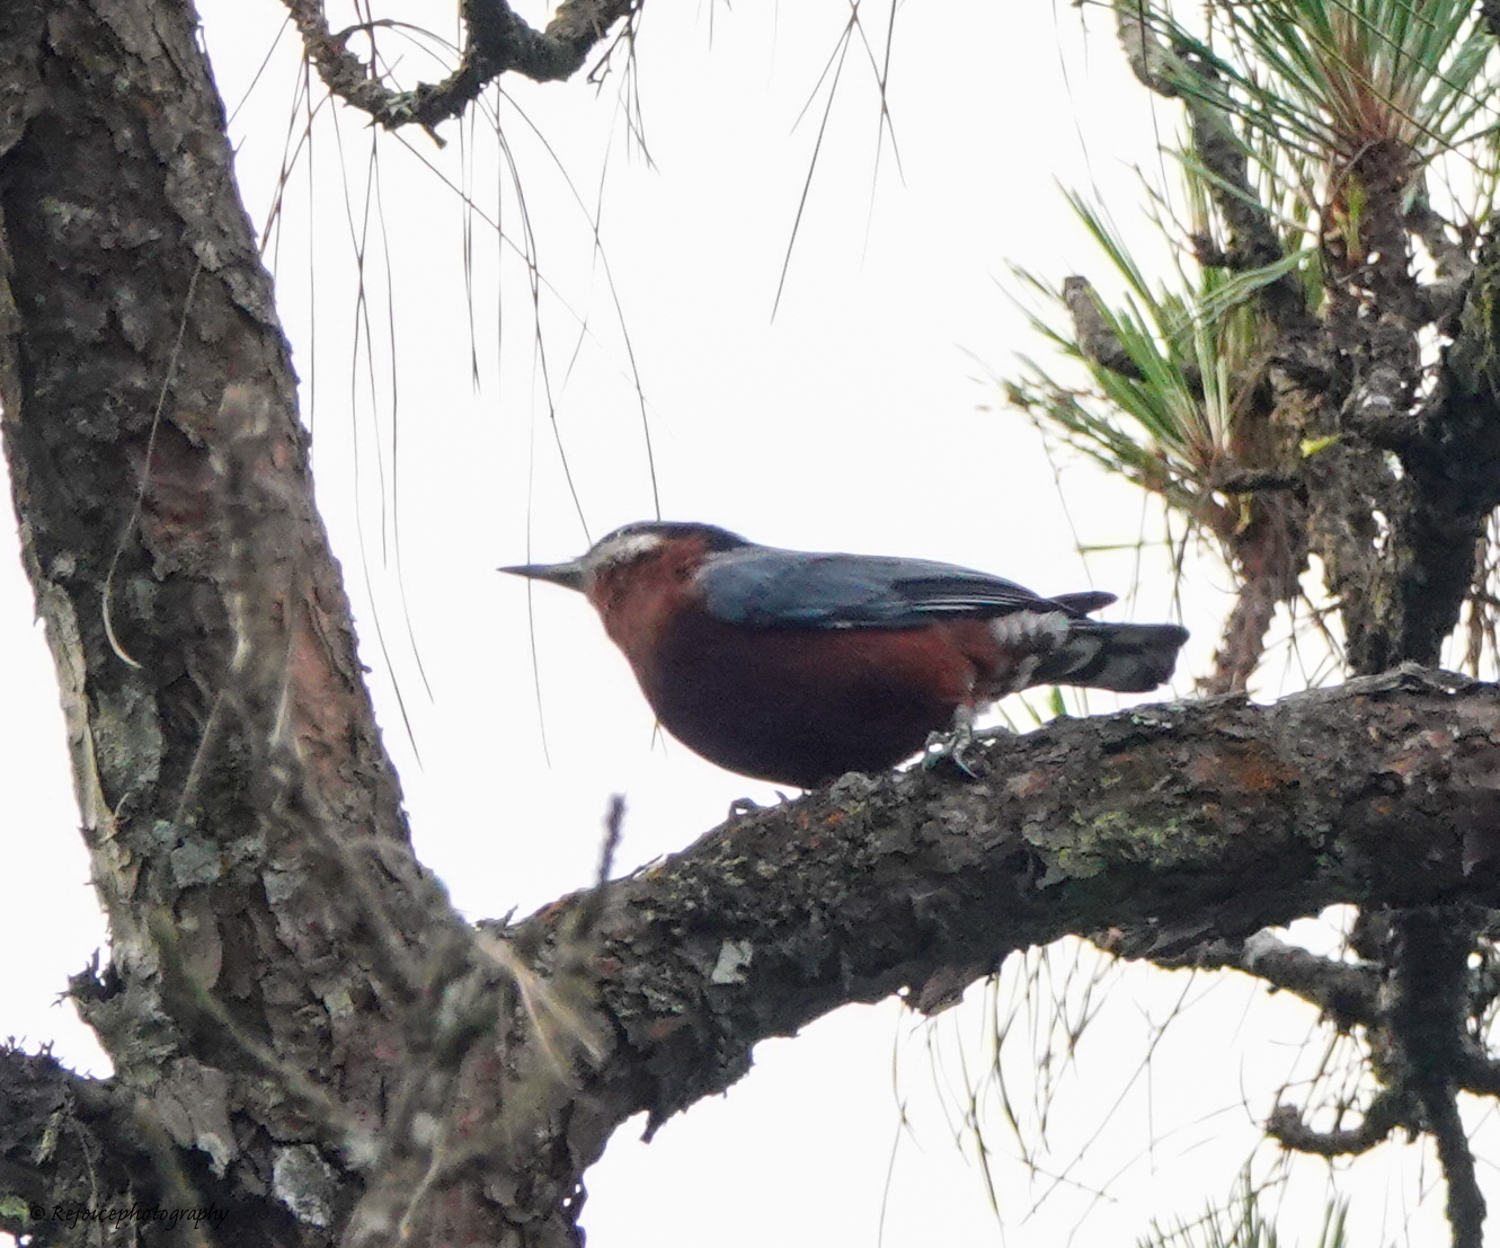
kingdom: Animalia
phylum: Chordata
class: Aves
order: Passeriformes
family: Sittidae
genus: Sitta
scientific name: Sitta cinnamoventris
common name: Chestnut-bellied nuthatch
